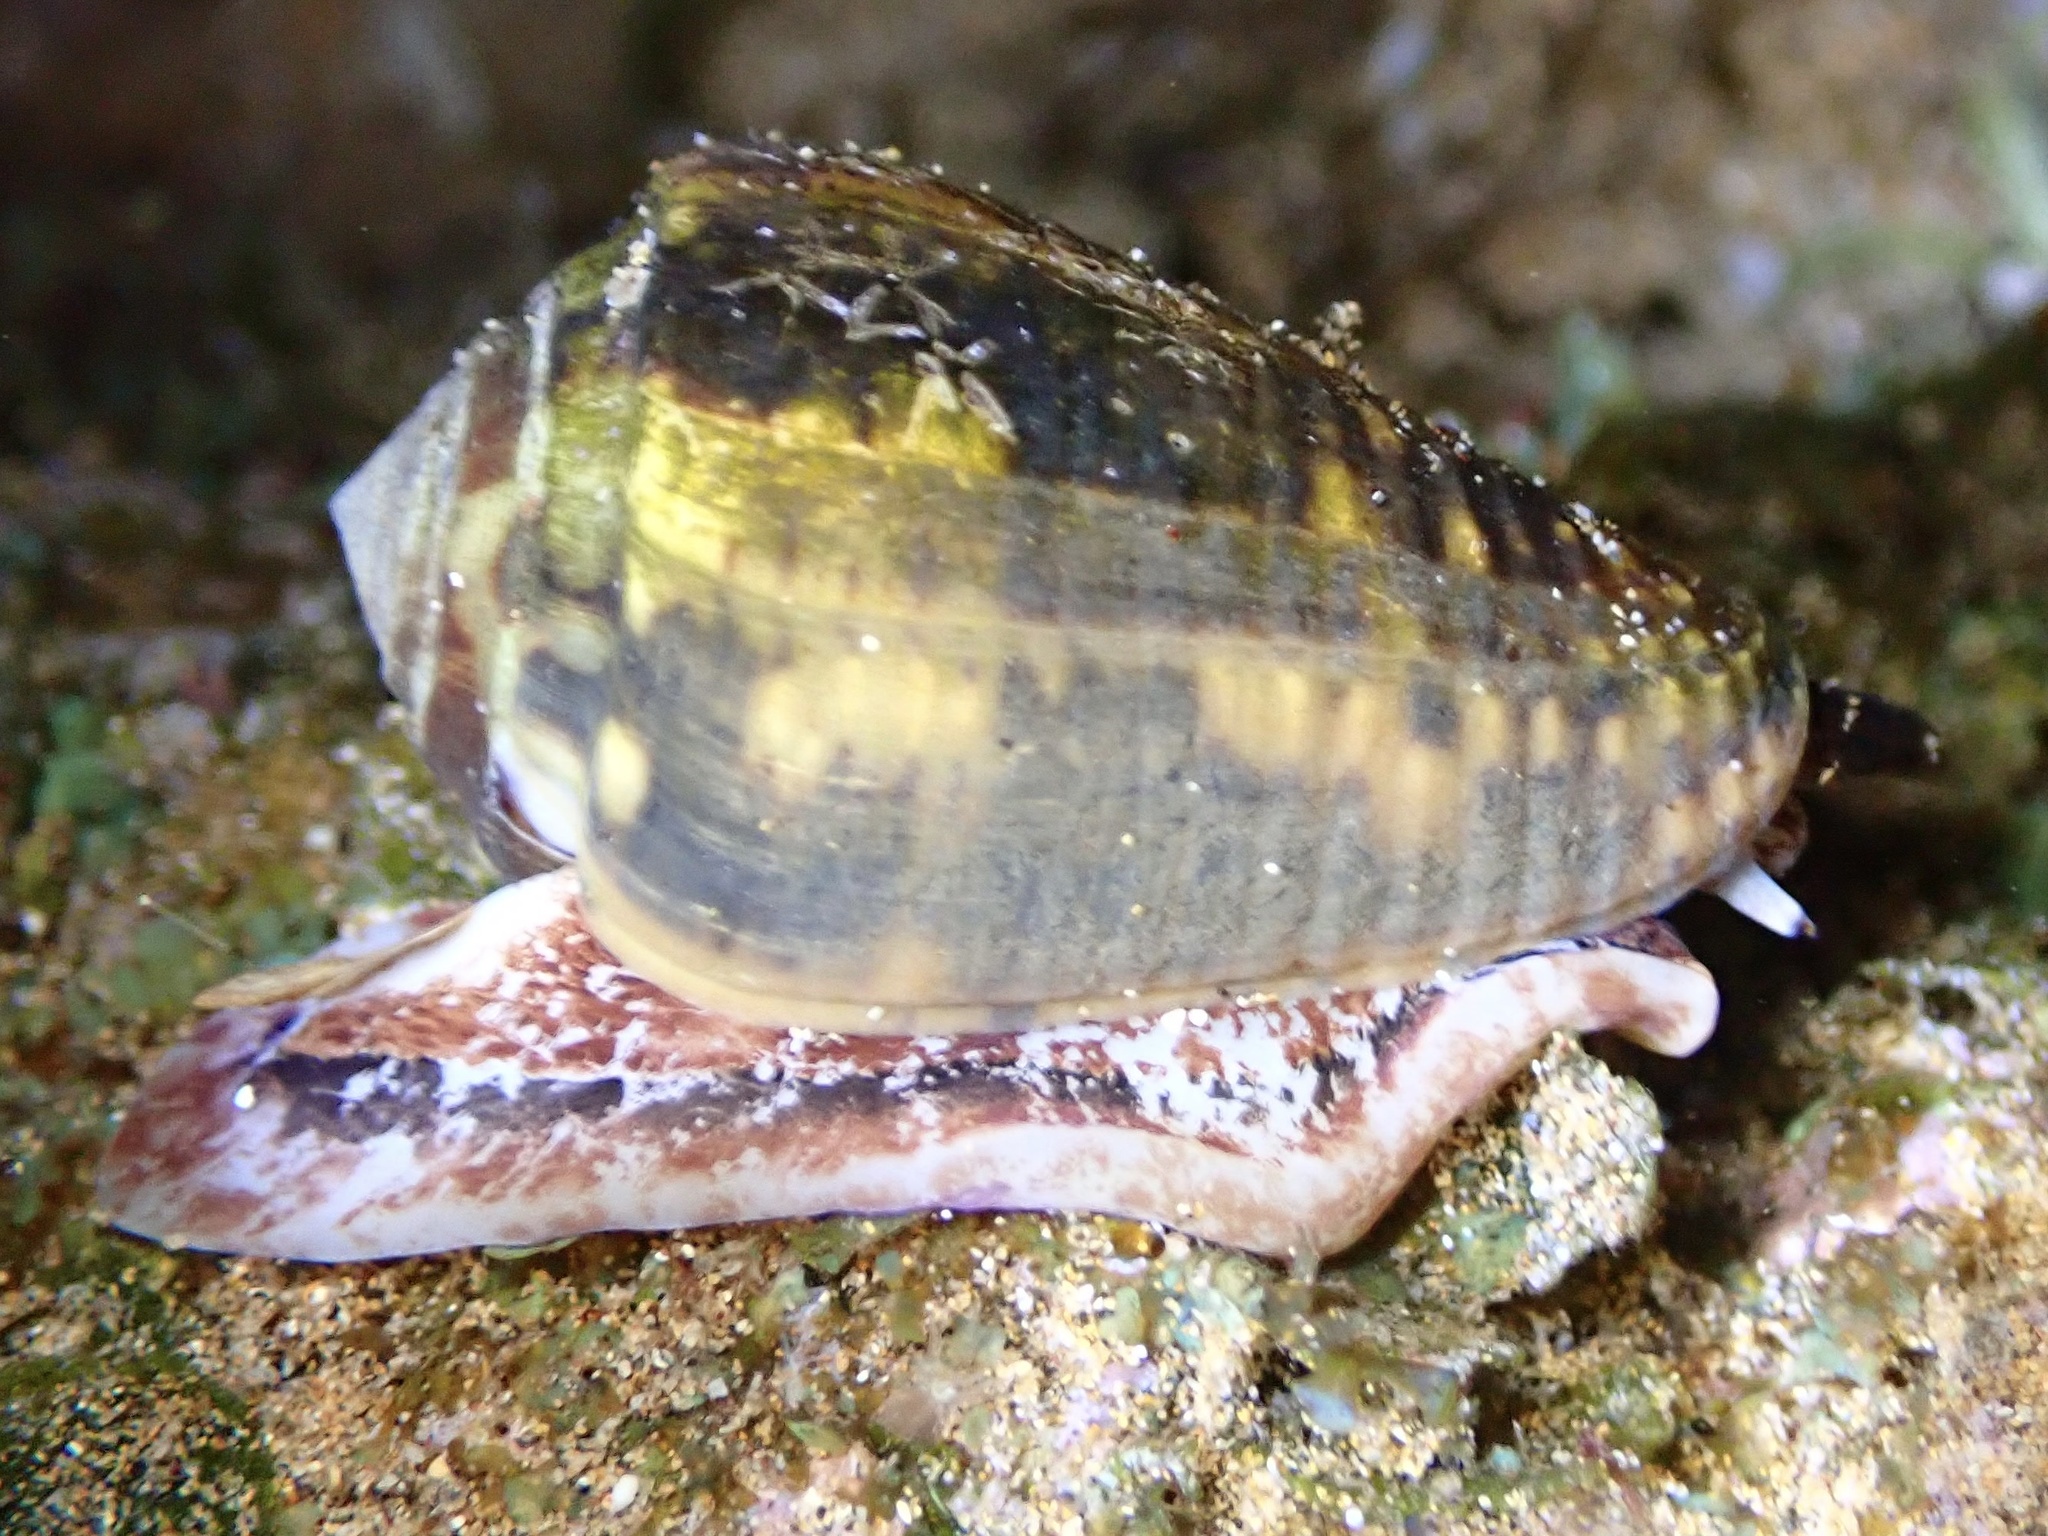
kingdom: Animalia
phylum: Mollusca
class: Gastropoda
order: Neogastropoda
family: Conidae
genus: Conus
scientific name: Conus catus
